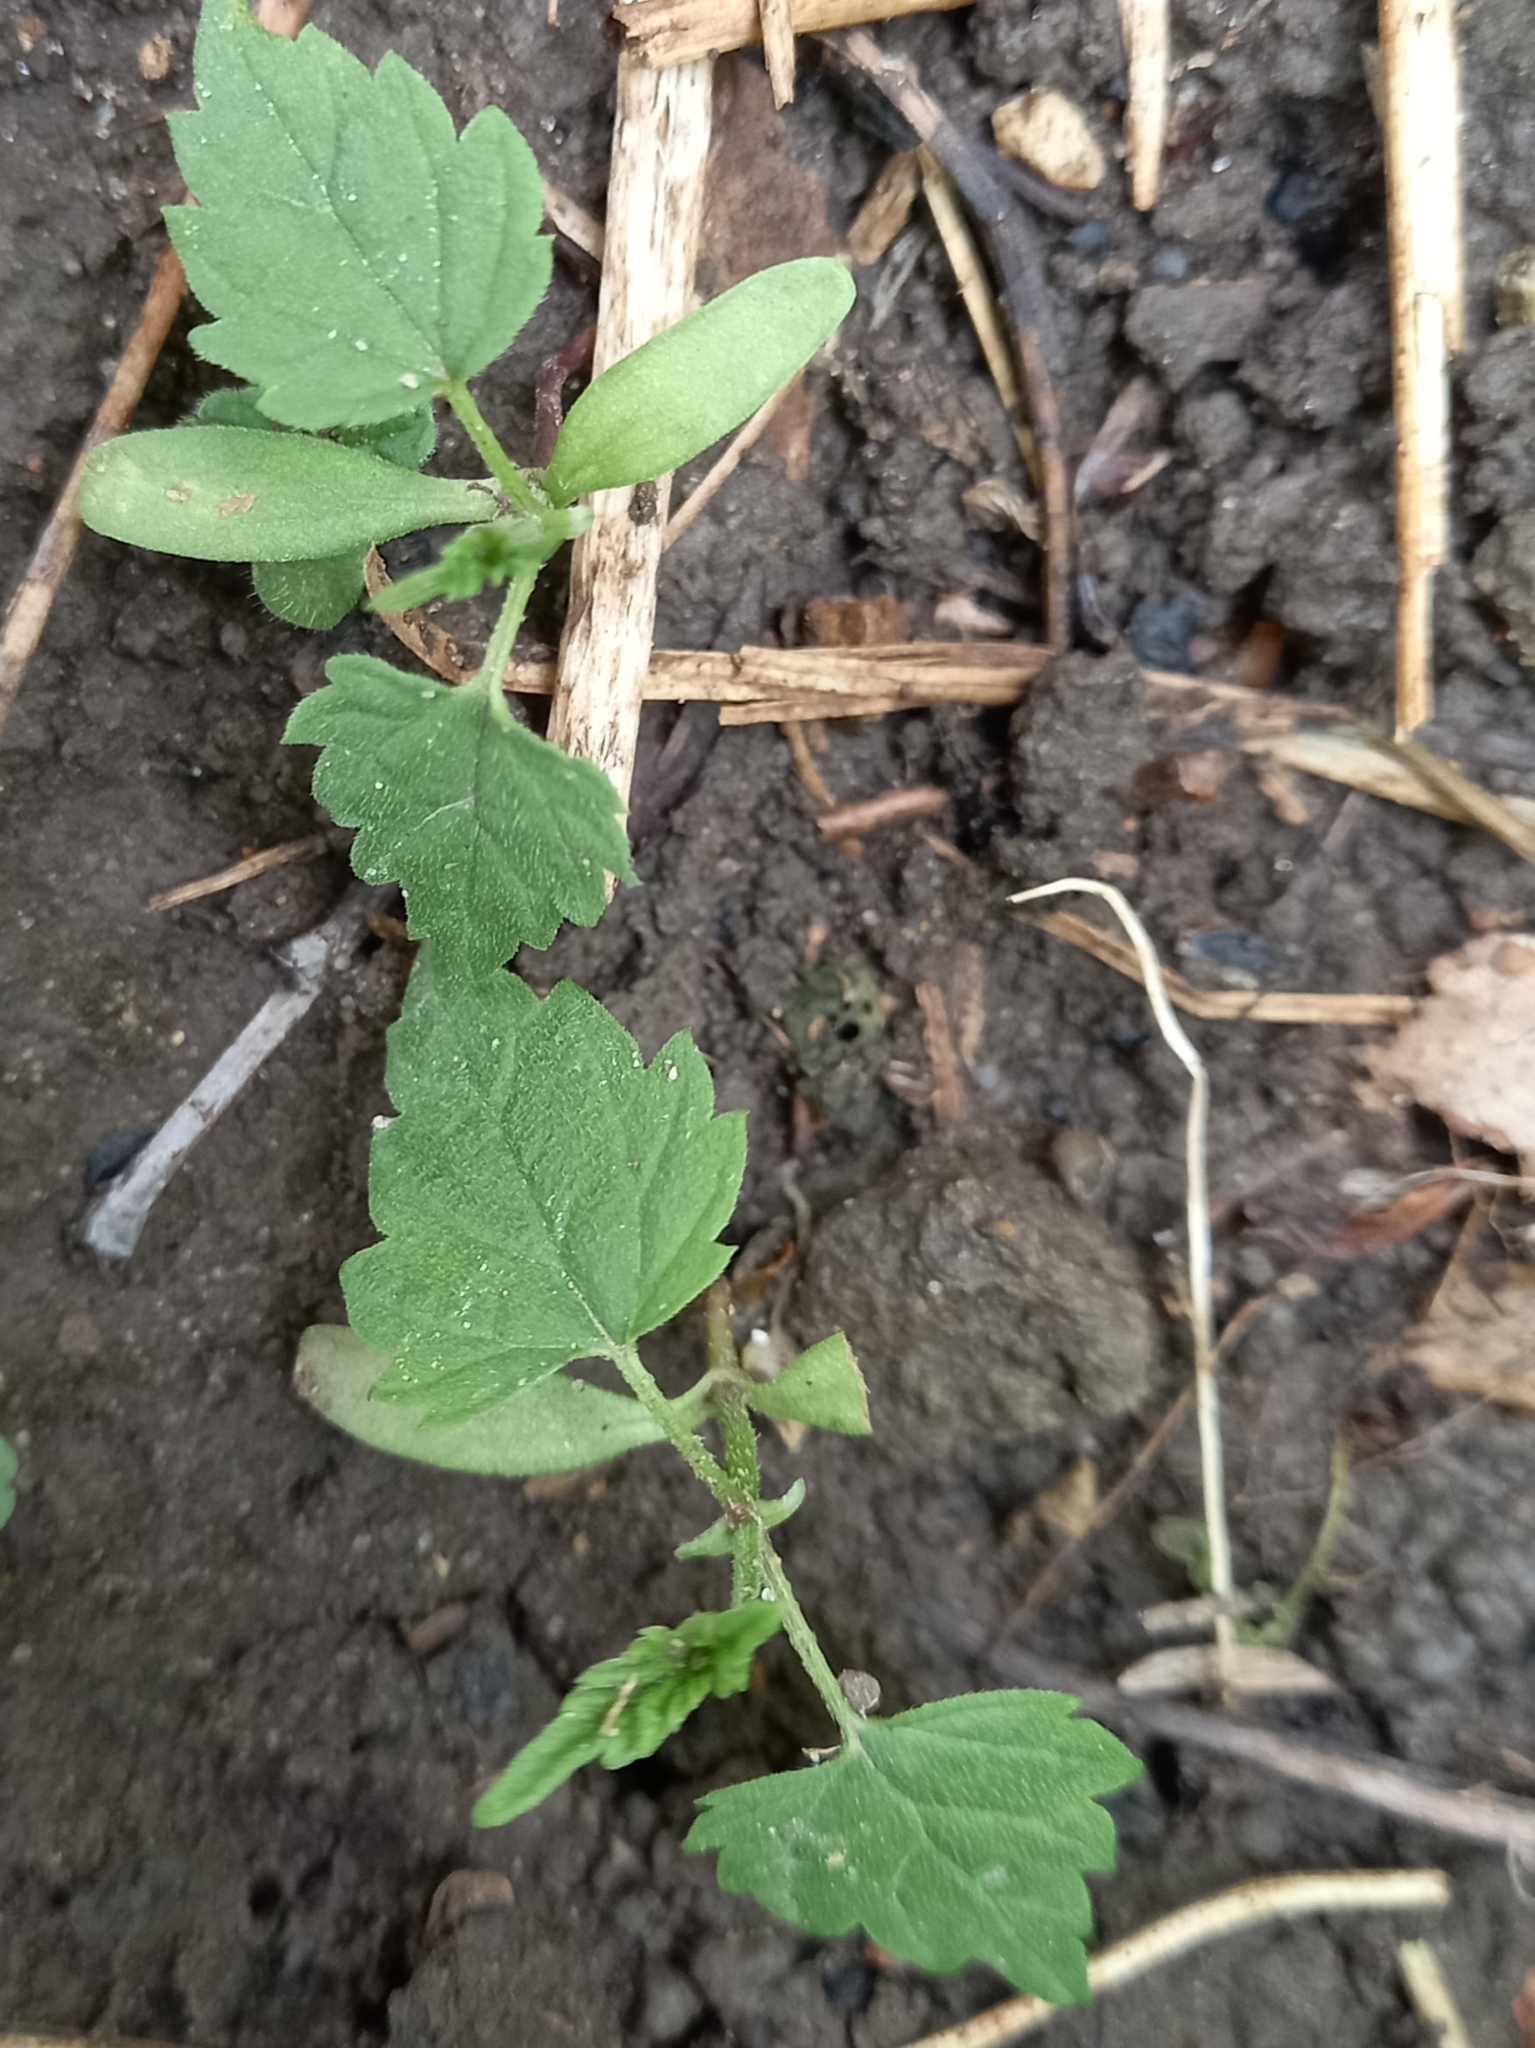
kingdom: Plantae
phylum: Tracheophyta
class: Magnoliopsida
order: Rosales
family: Cannabaceae
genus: Humulus
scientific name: Humulus lupulus
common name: Hop
